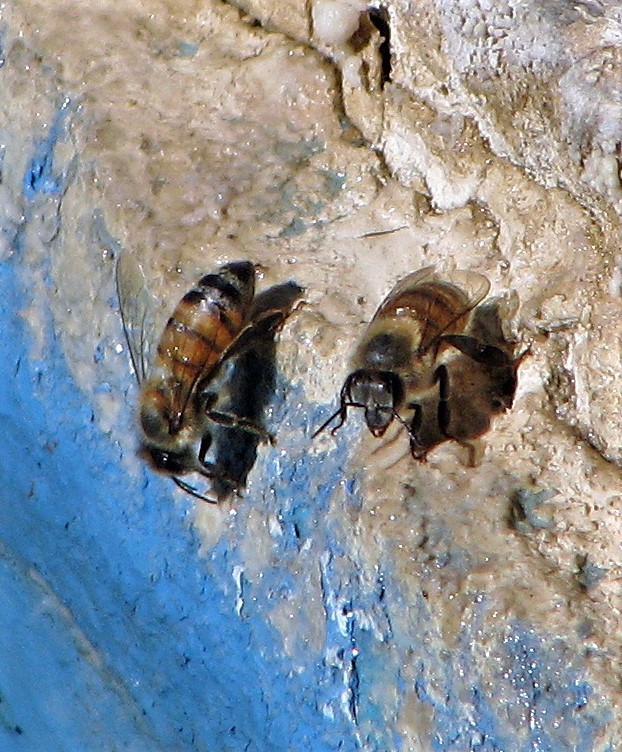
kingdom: Animalia
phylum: Arthropoda
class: Insecta
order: Hymenoptera
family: Apidae
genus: Apis
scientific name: Apis mellifera
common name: Honey bee
